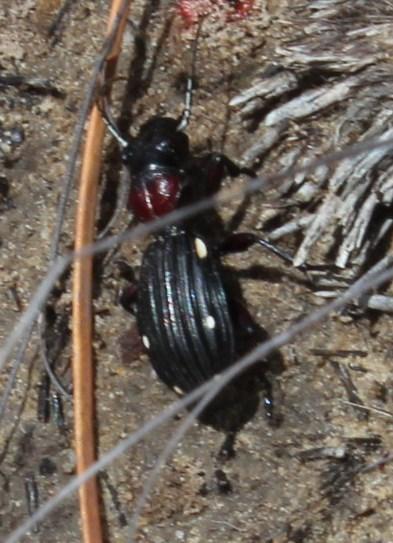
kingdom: Animalia
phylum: Arthropoda
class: Insecta
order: Coleoptera
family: Carabidae
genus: Anthia
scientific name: Anthia decemguttata
